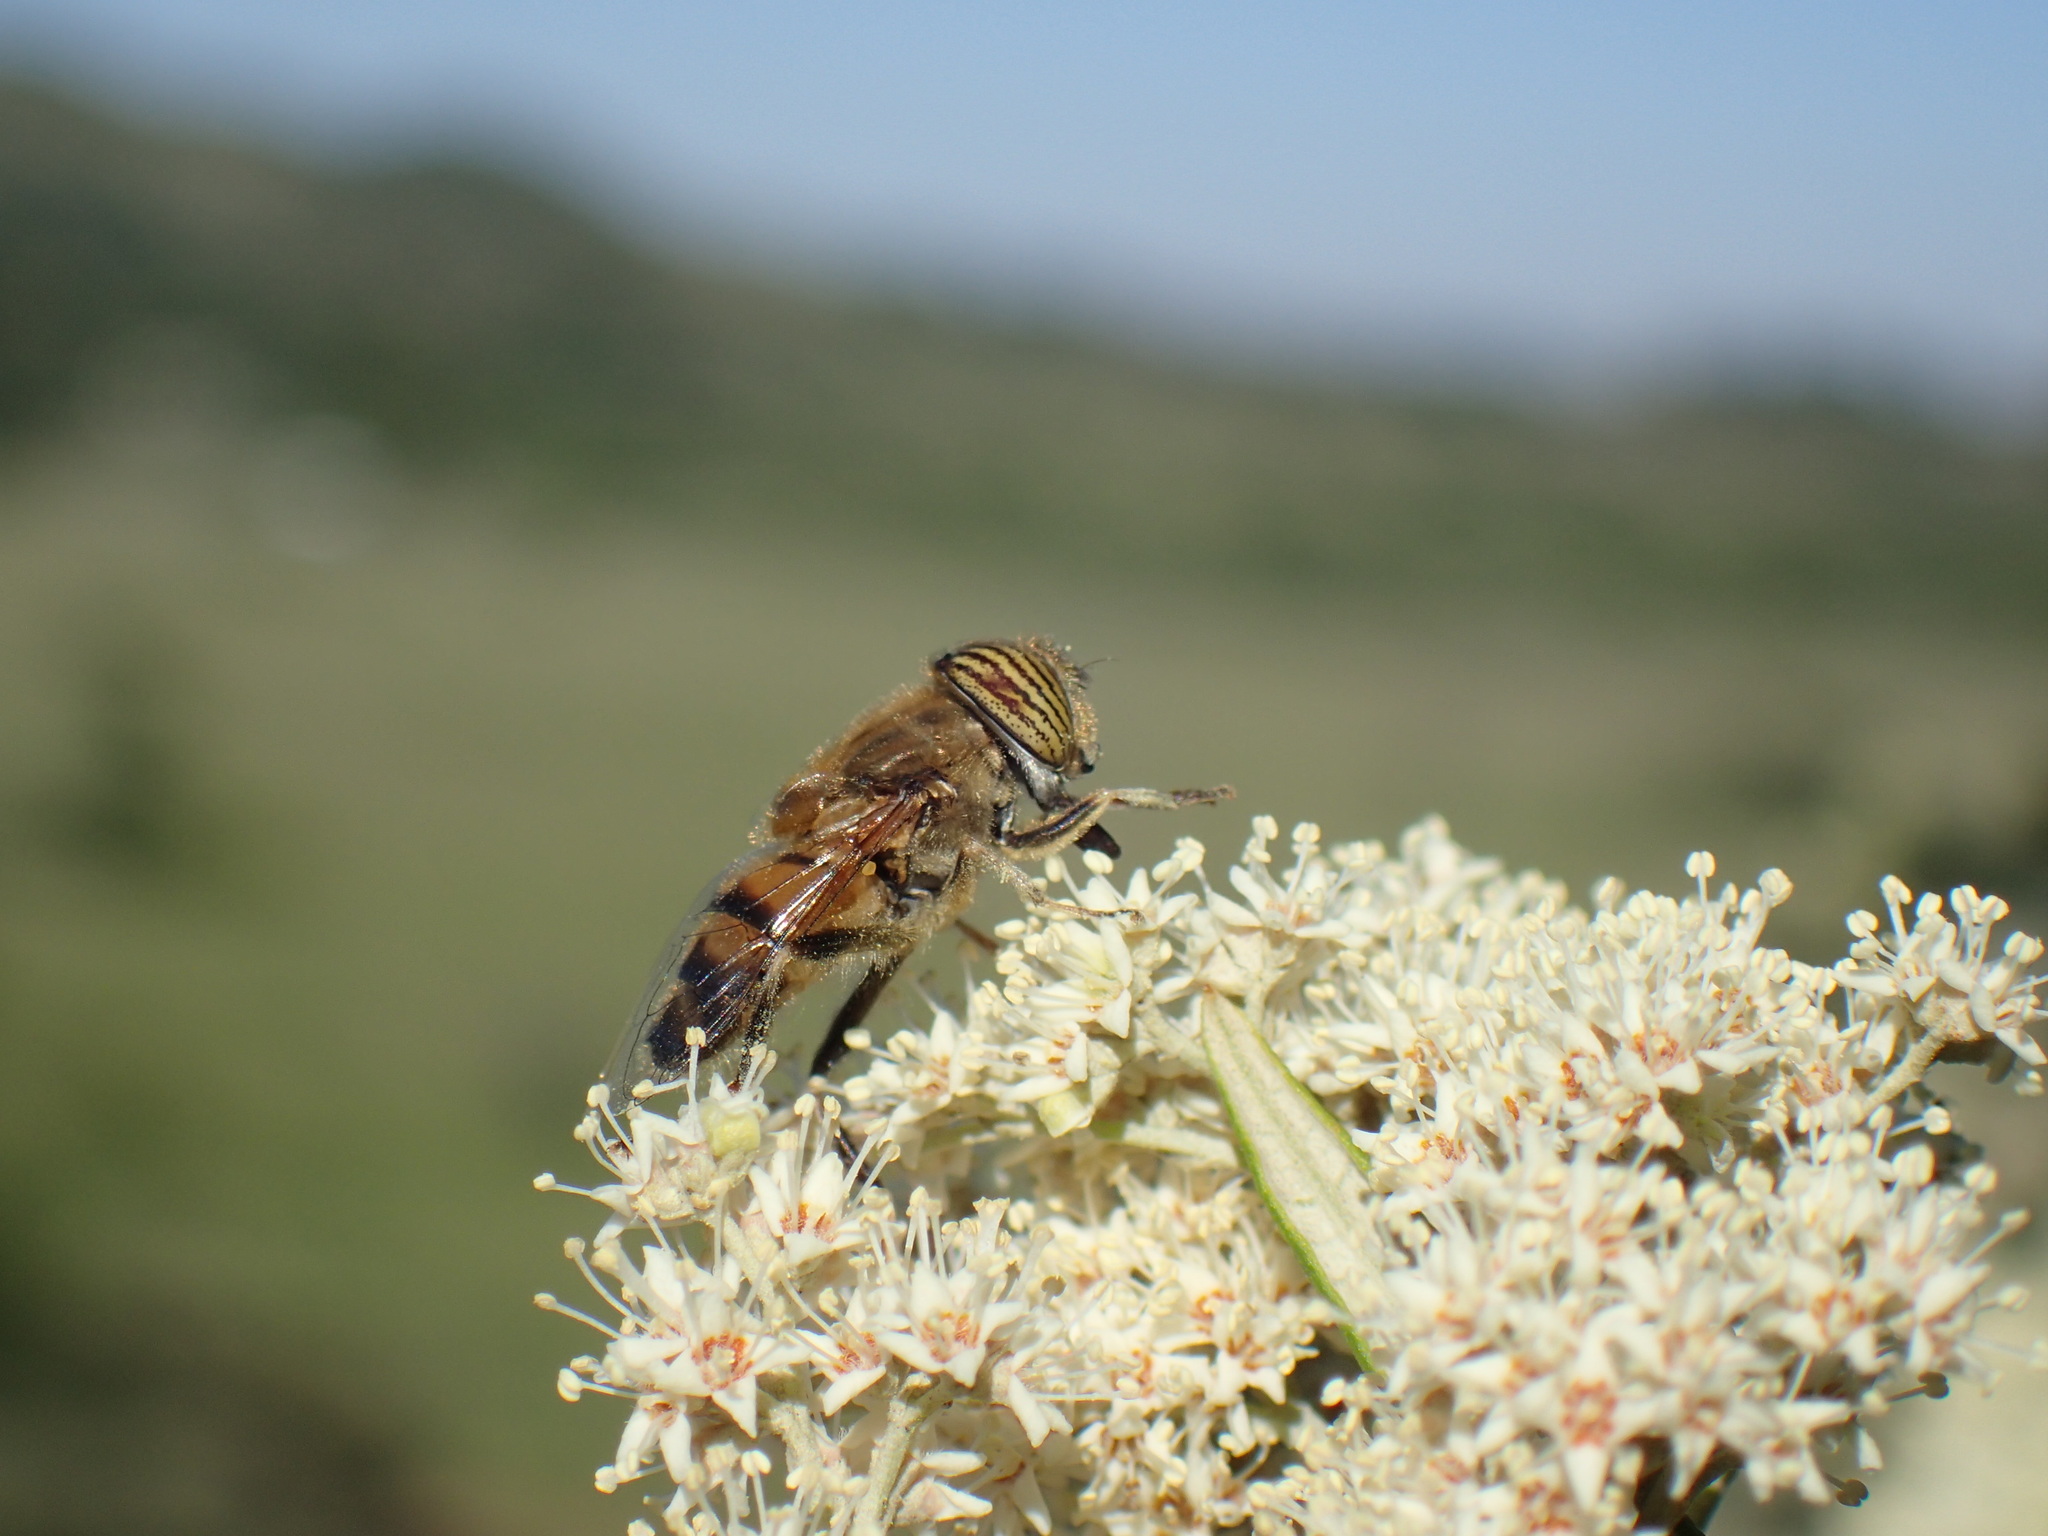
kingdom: Animalia
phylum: Arthropoda
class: Insecta
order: Diptera
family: Syrphidae
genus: Eristalinus
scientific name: Eristalinus taeniops
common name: Syrphid fly
